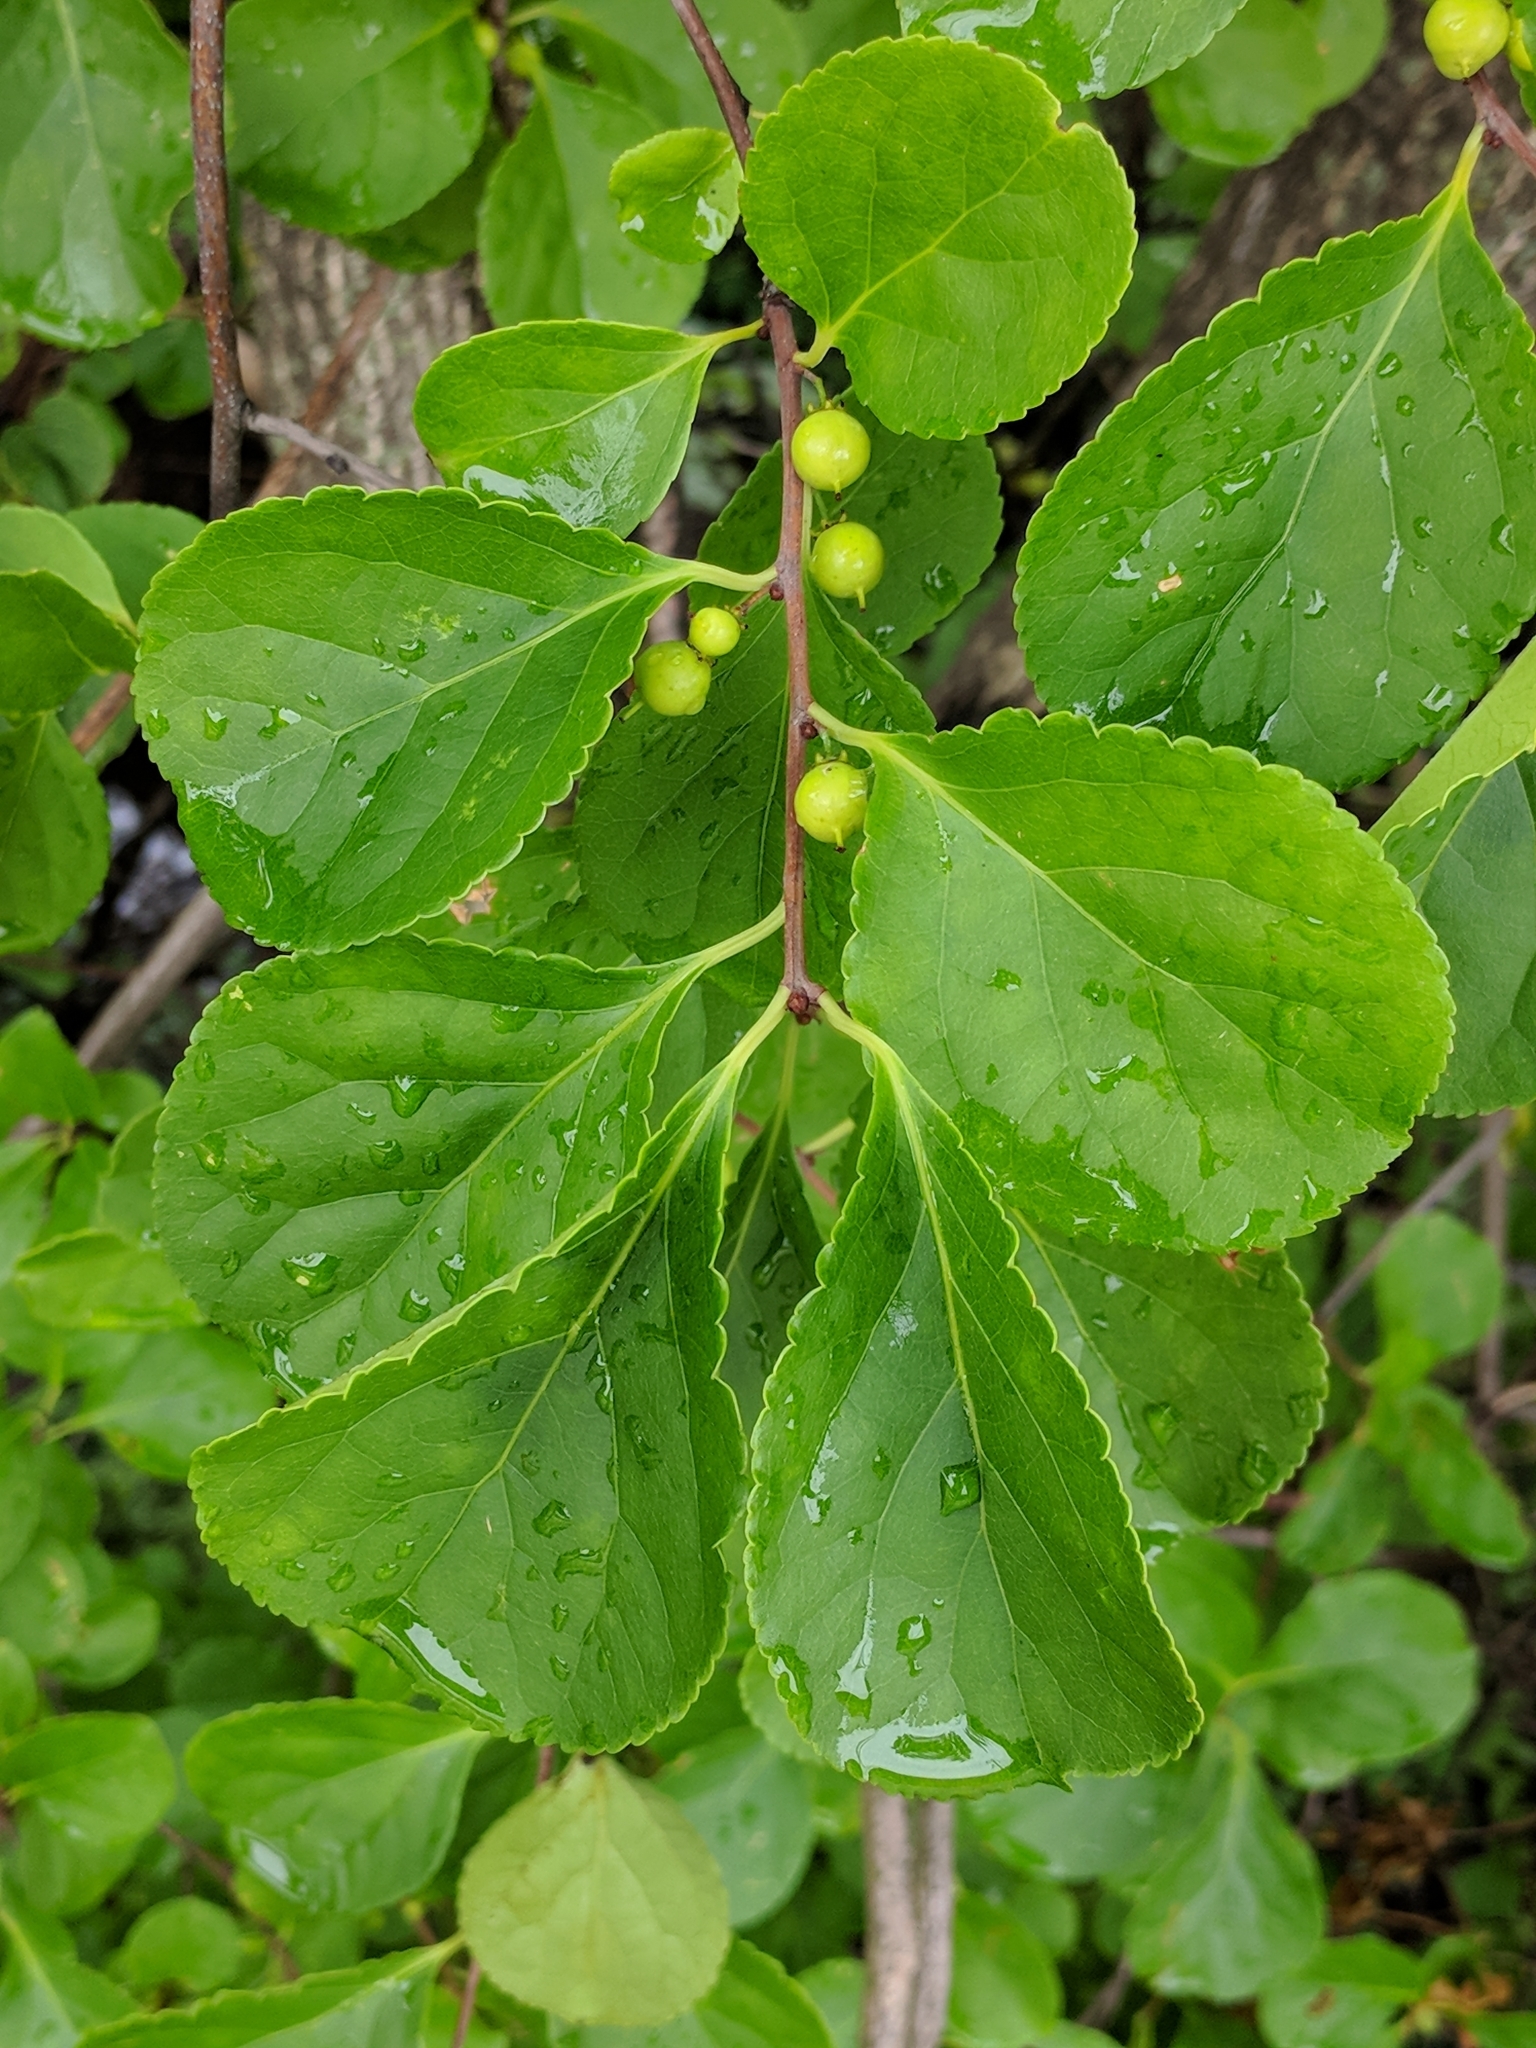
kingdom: Plantae
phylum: Tracheophyta
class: Magnoliopsida
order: Celastrales
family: Celastraceae
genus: Celastrus
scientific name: Celastrus orbiculatus
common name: Oriental bittersweet
